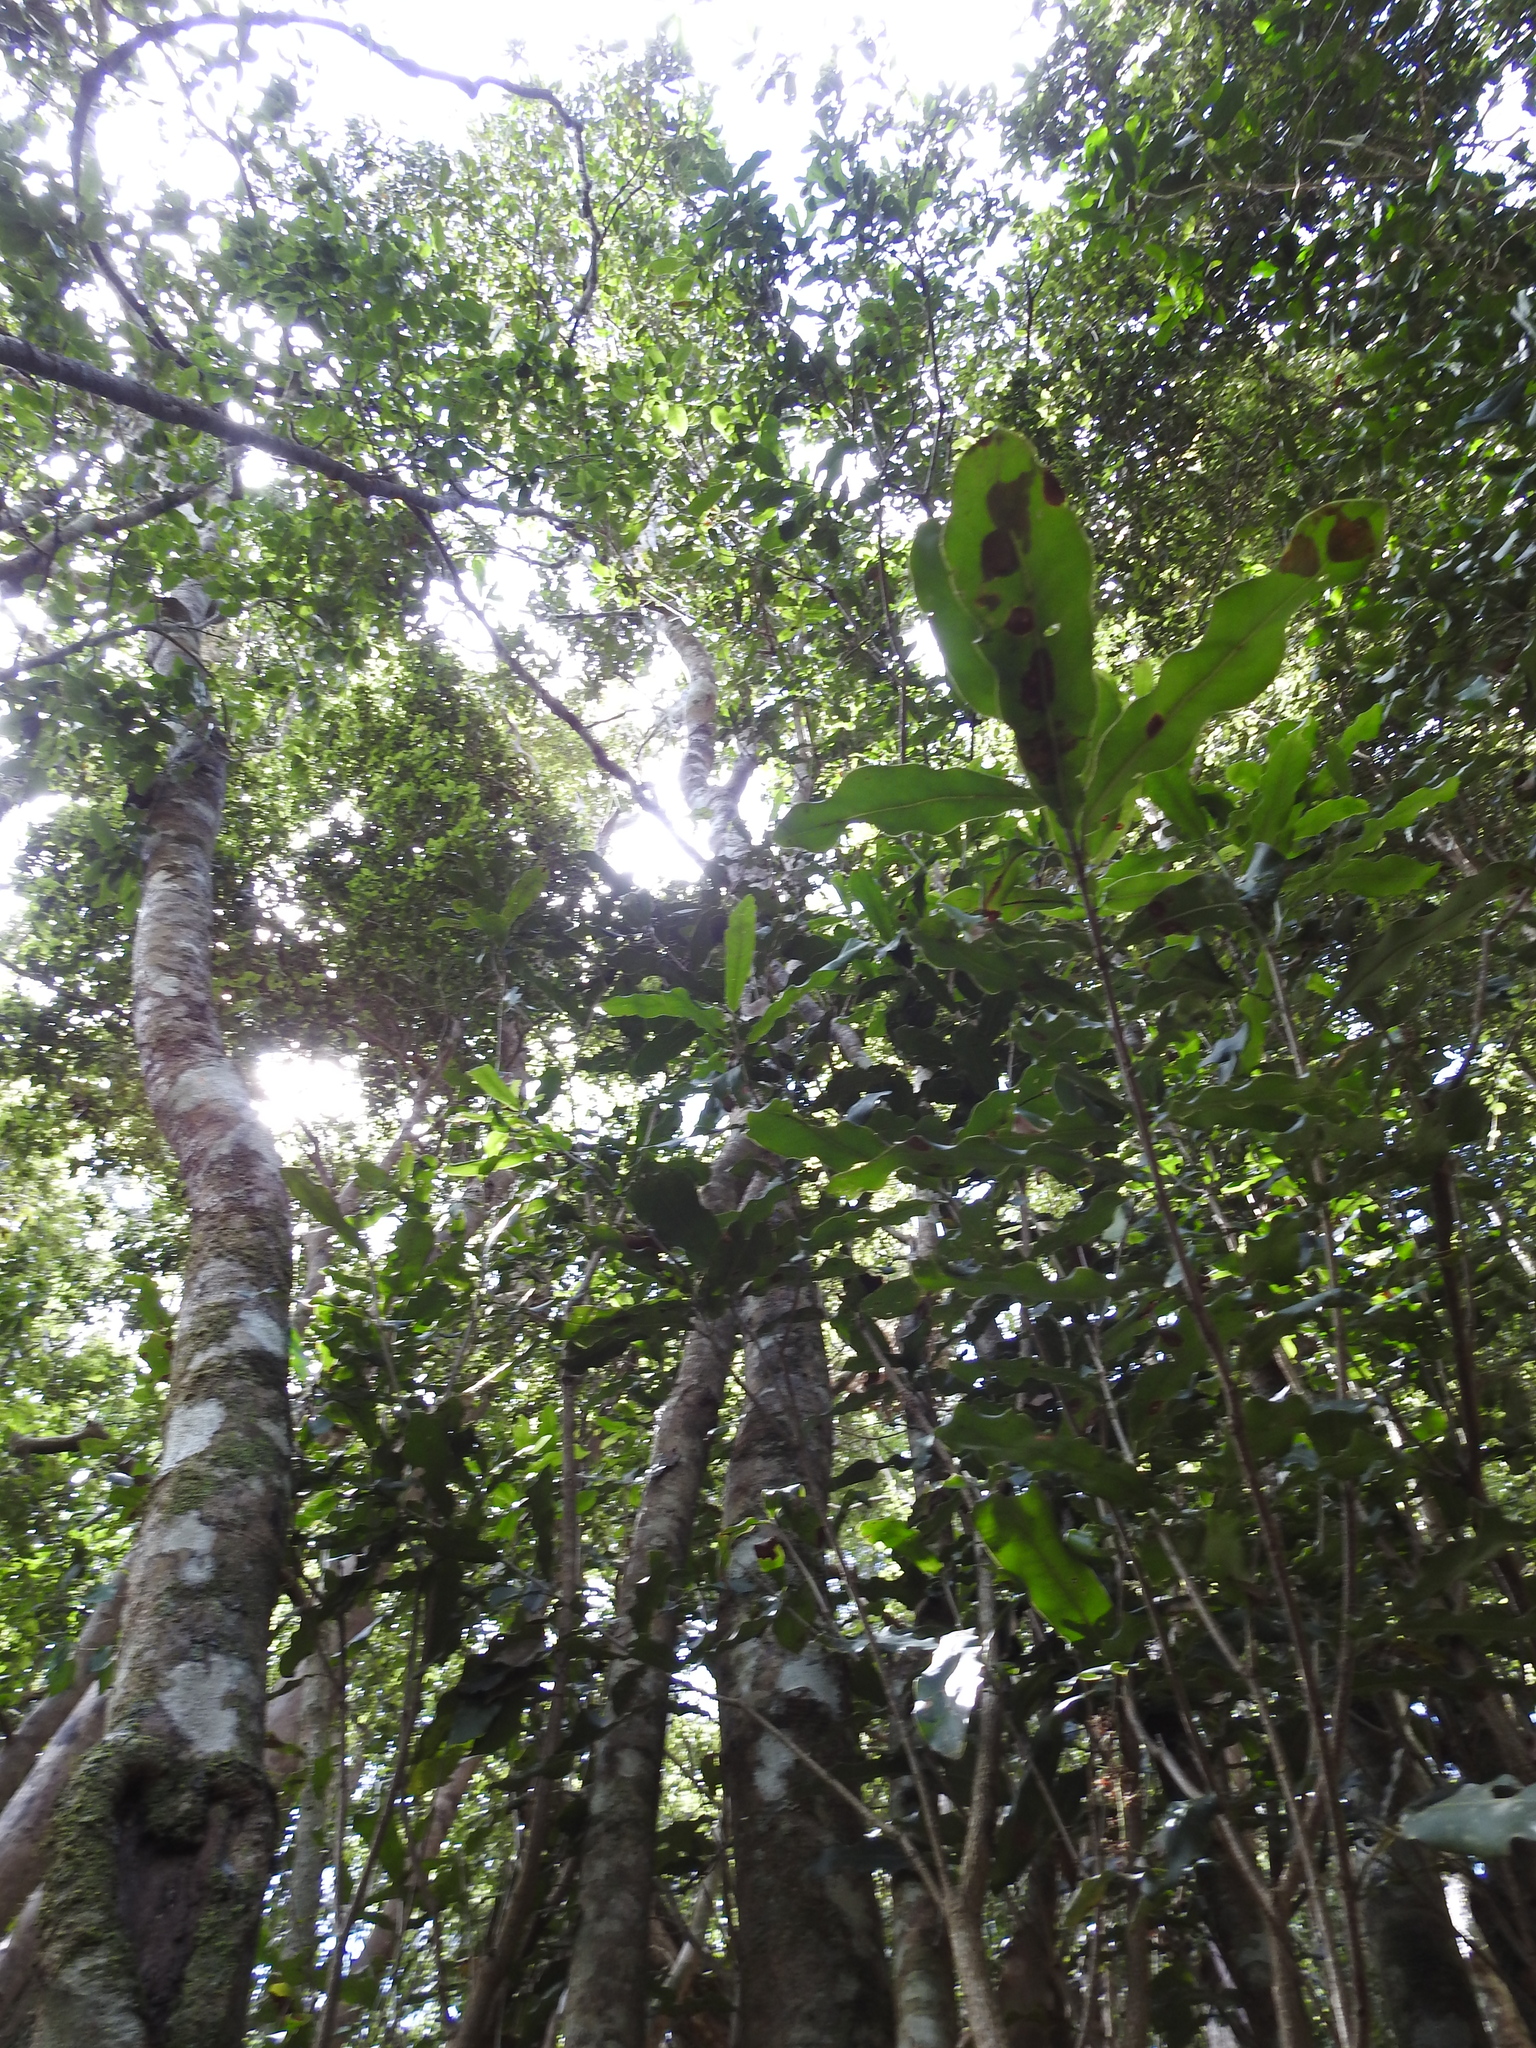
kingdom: Plantae
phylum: Tracheophyta
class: Magnoliopsida
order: Proteales
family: Proteaceae
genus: Macadamia
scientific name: Macadamia integrifolia
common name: Macadamia
